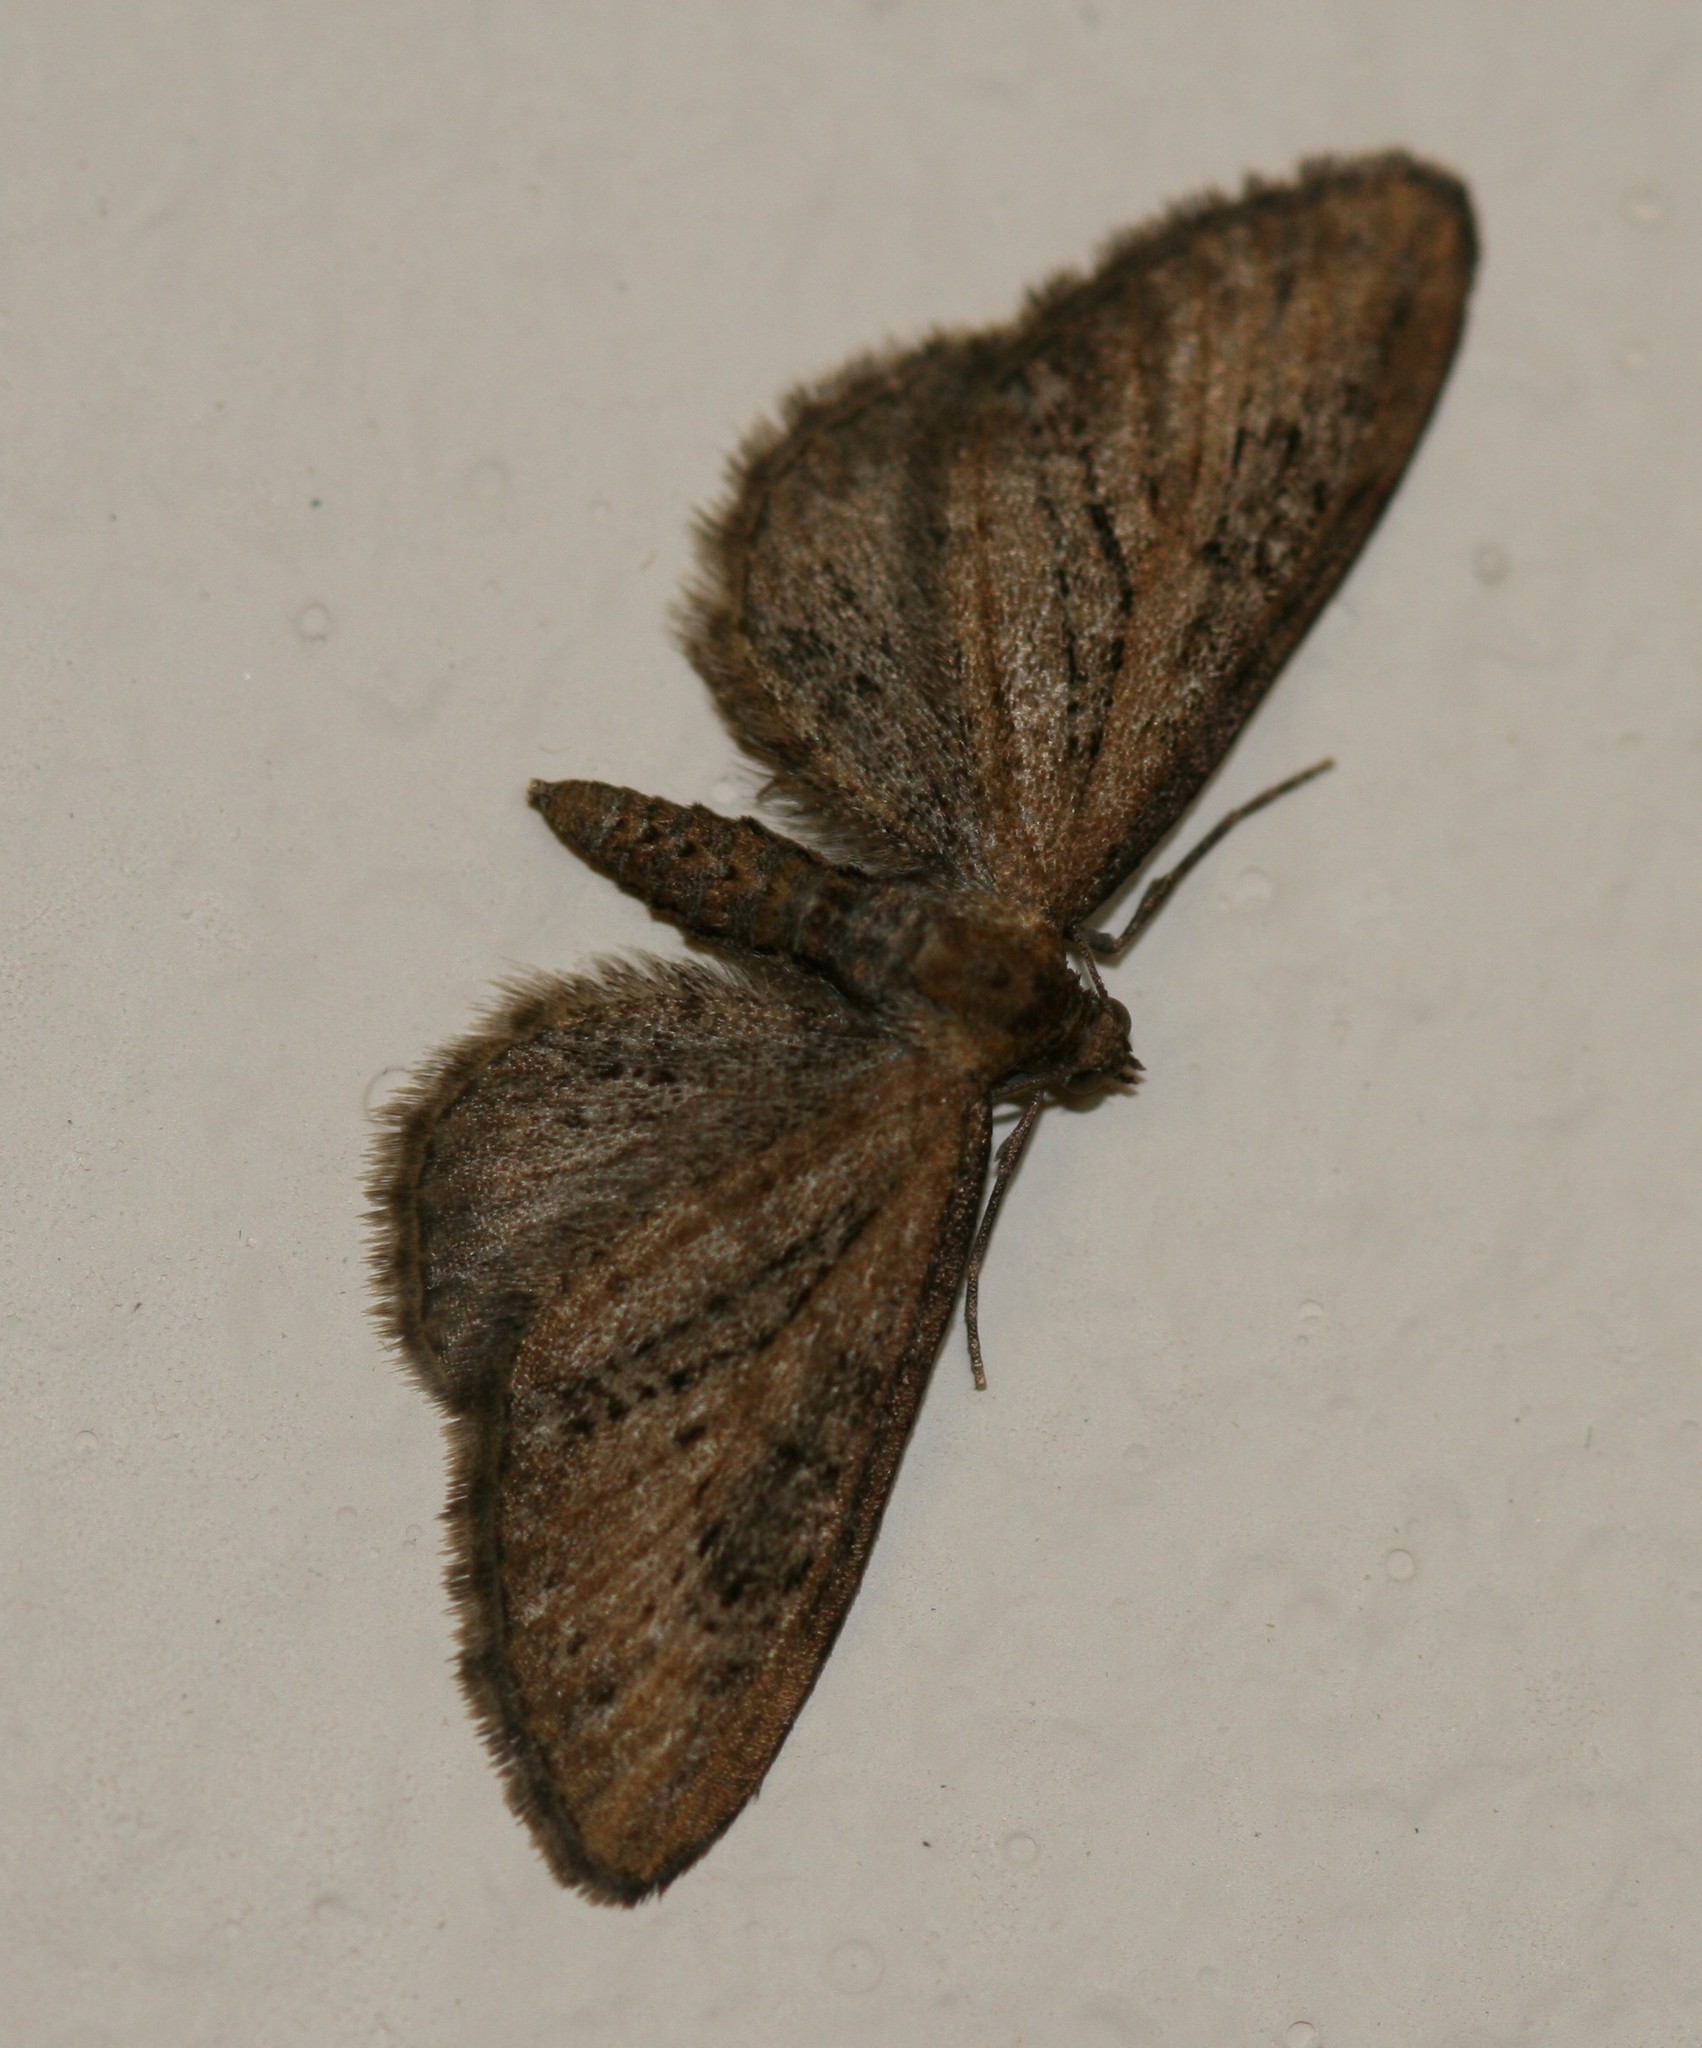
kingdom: Animalia
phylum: Arthropoda
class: Insecta
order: Lepidoptera
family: Geometridae
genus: Eupithecia
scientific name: Eupithecia vulgata
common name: Common pug
